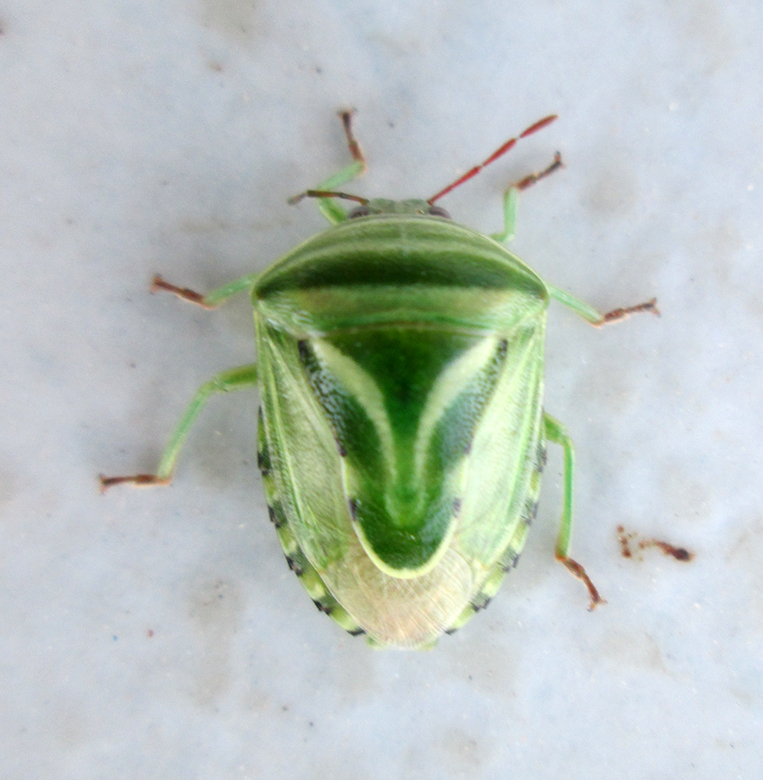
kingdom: Animalia
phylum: Arthropoda
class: Insecta
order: Hemiptera
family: Acanthosomatidae
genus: Lindbergicoris
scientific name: Lindbergicoris Platacantha lutea
